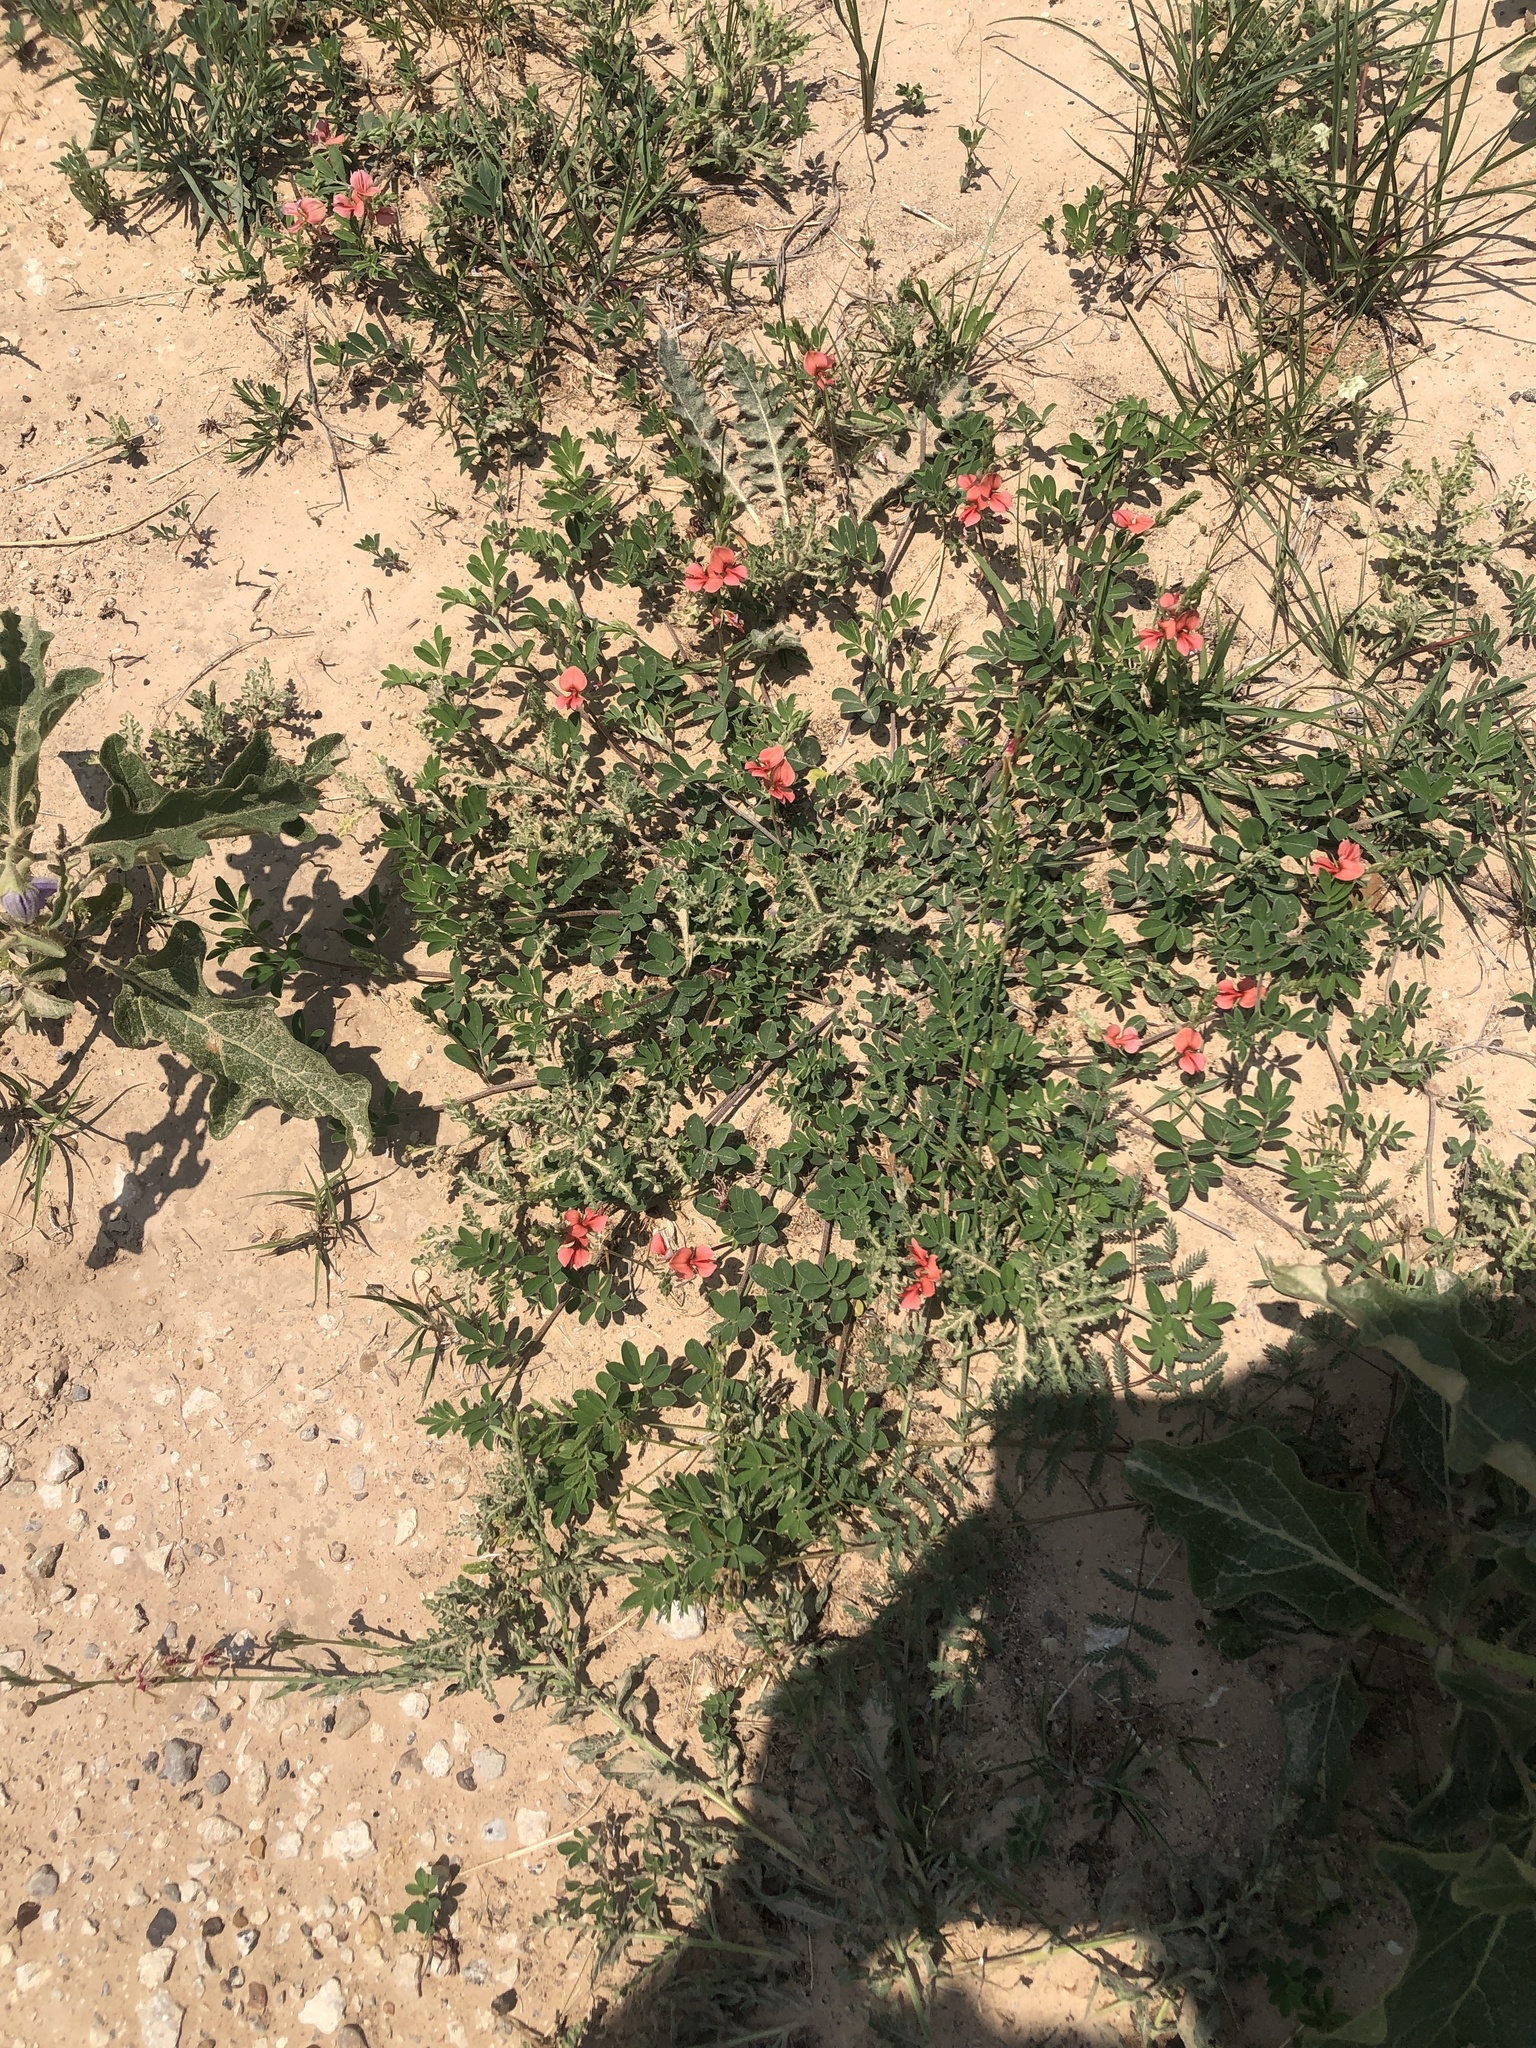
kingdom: Plantae
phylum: Tracheophyta
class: Magnoliopsida
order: Fabales
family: Fabaceae
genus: Indigofera
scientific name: Indigofera miniata
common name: Coast indigo
